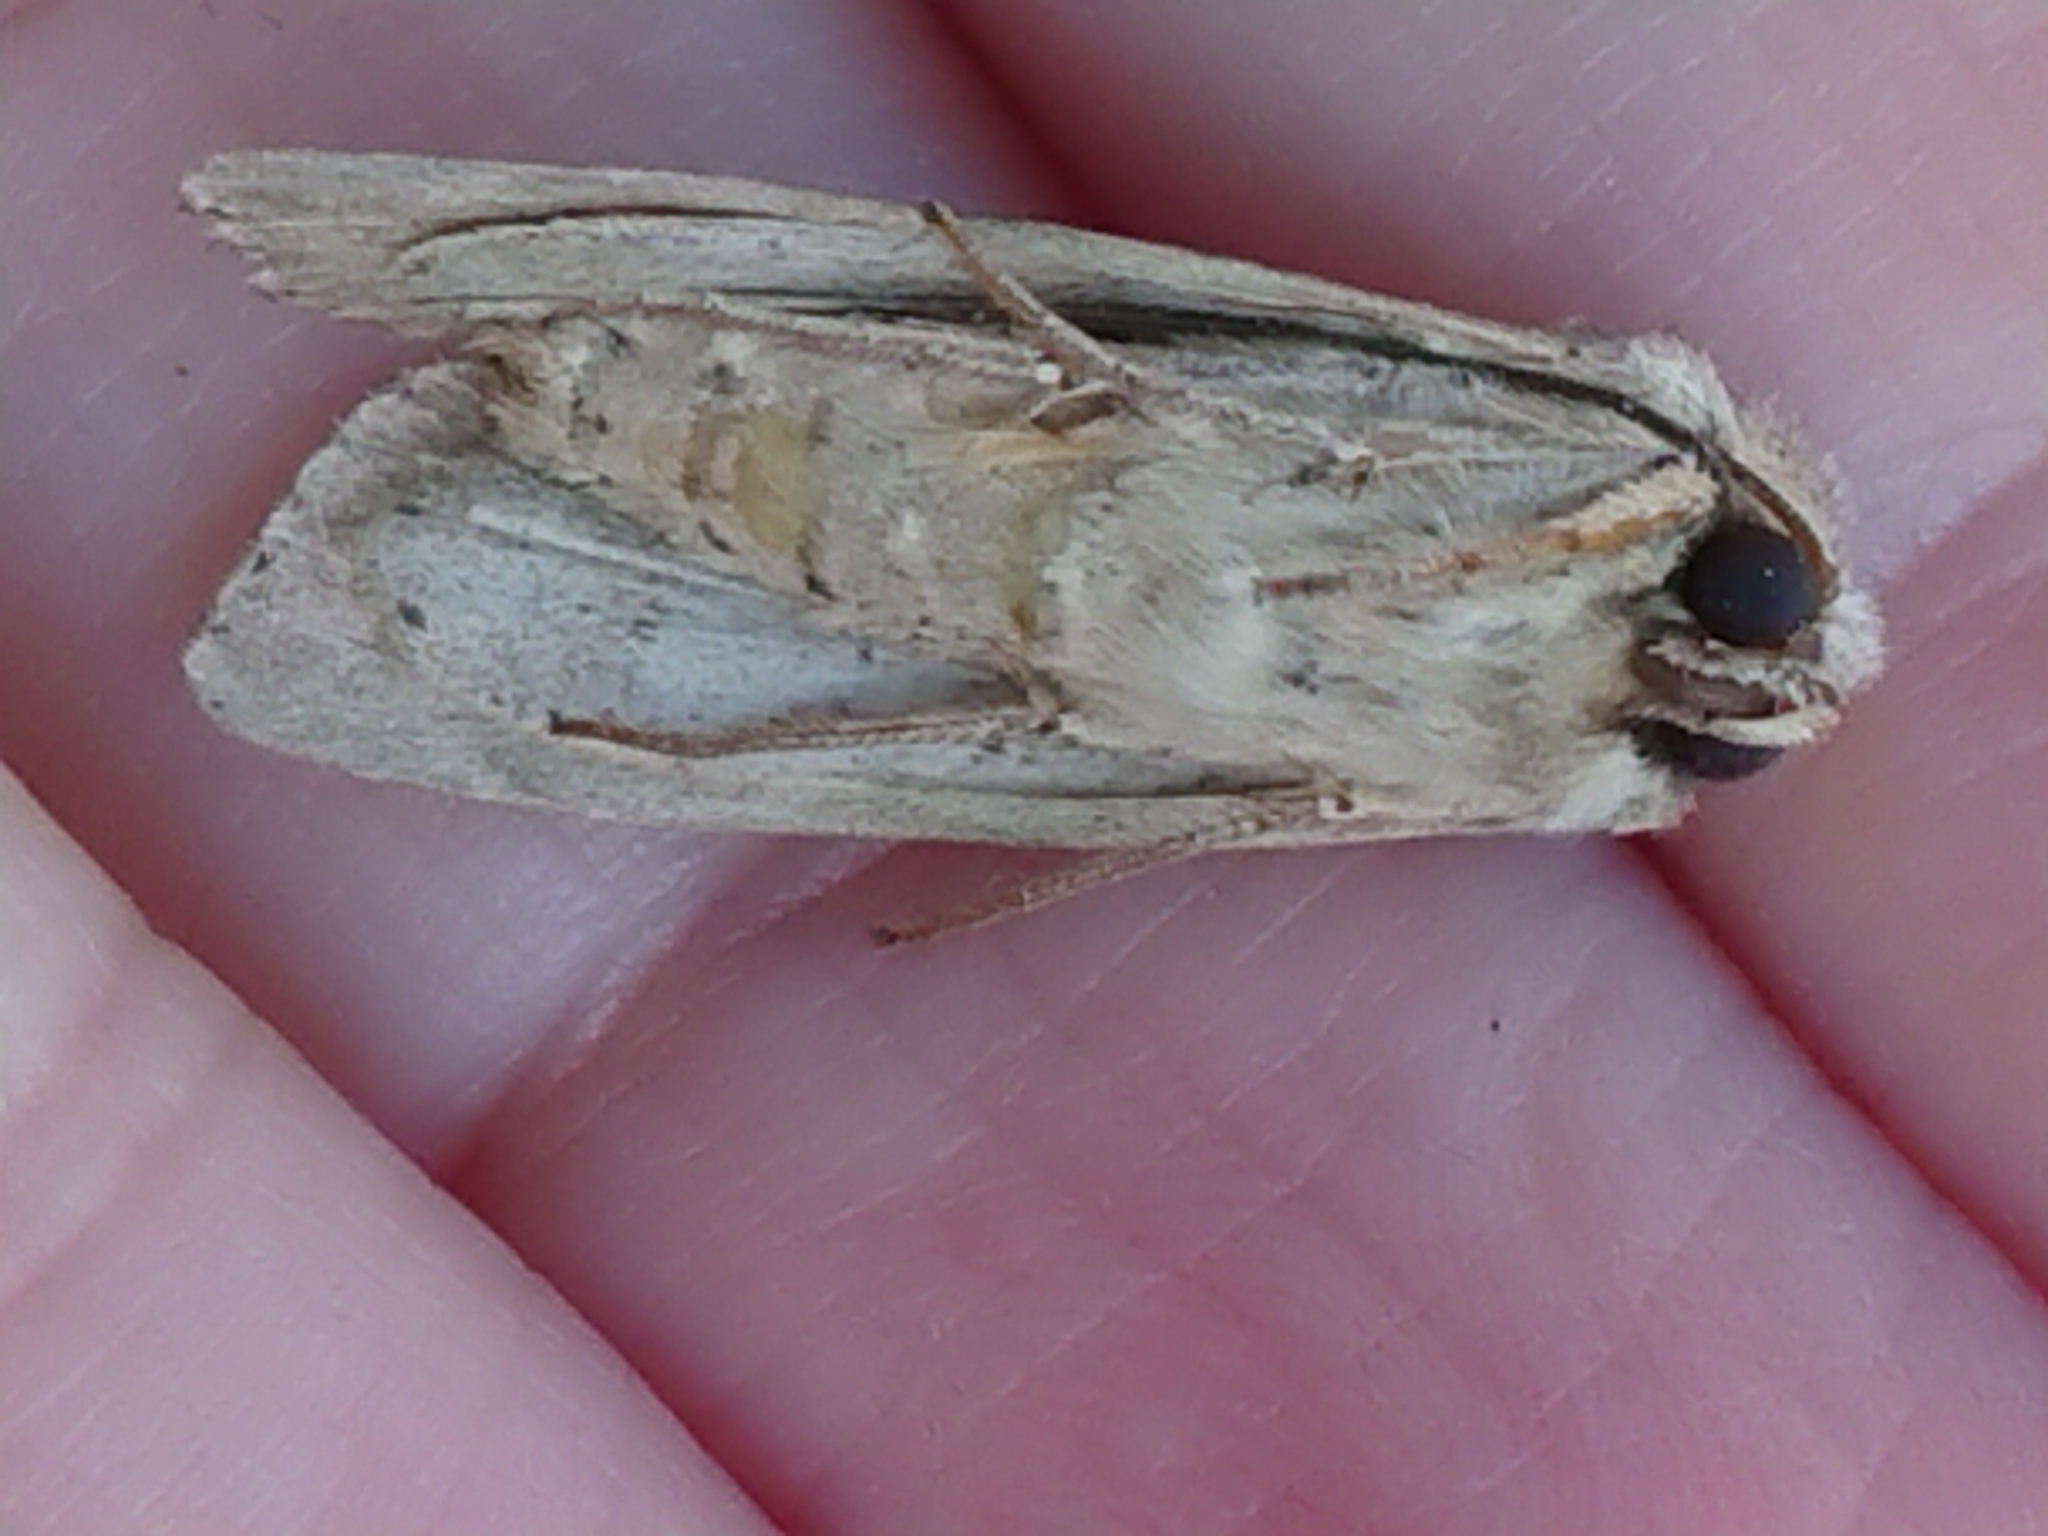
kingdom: Animalia
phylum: Arthropoda
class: Insecta
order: Lepidoptera
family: Noctuidae
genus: Ichneutica
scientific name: Ichneutica lignana
